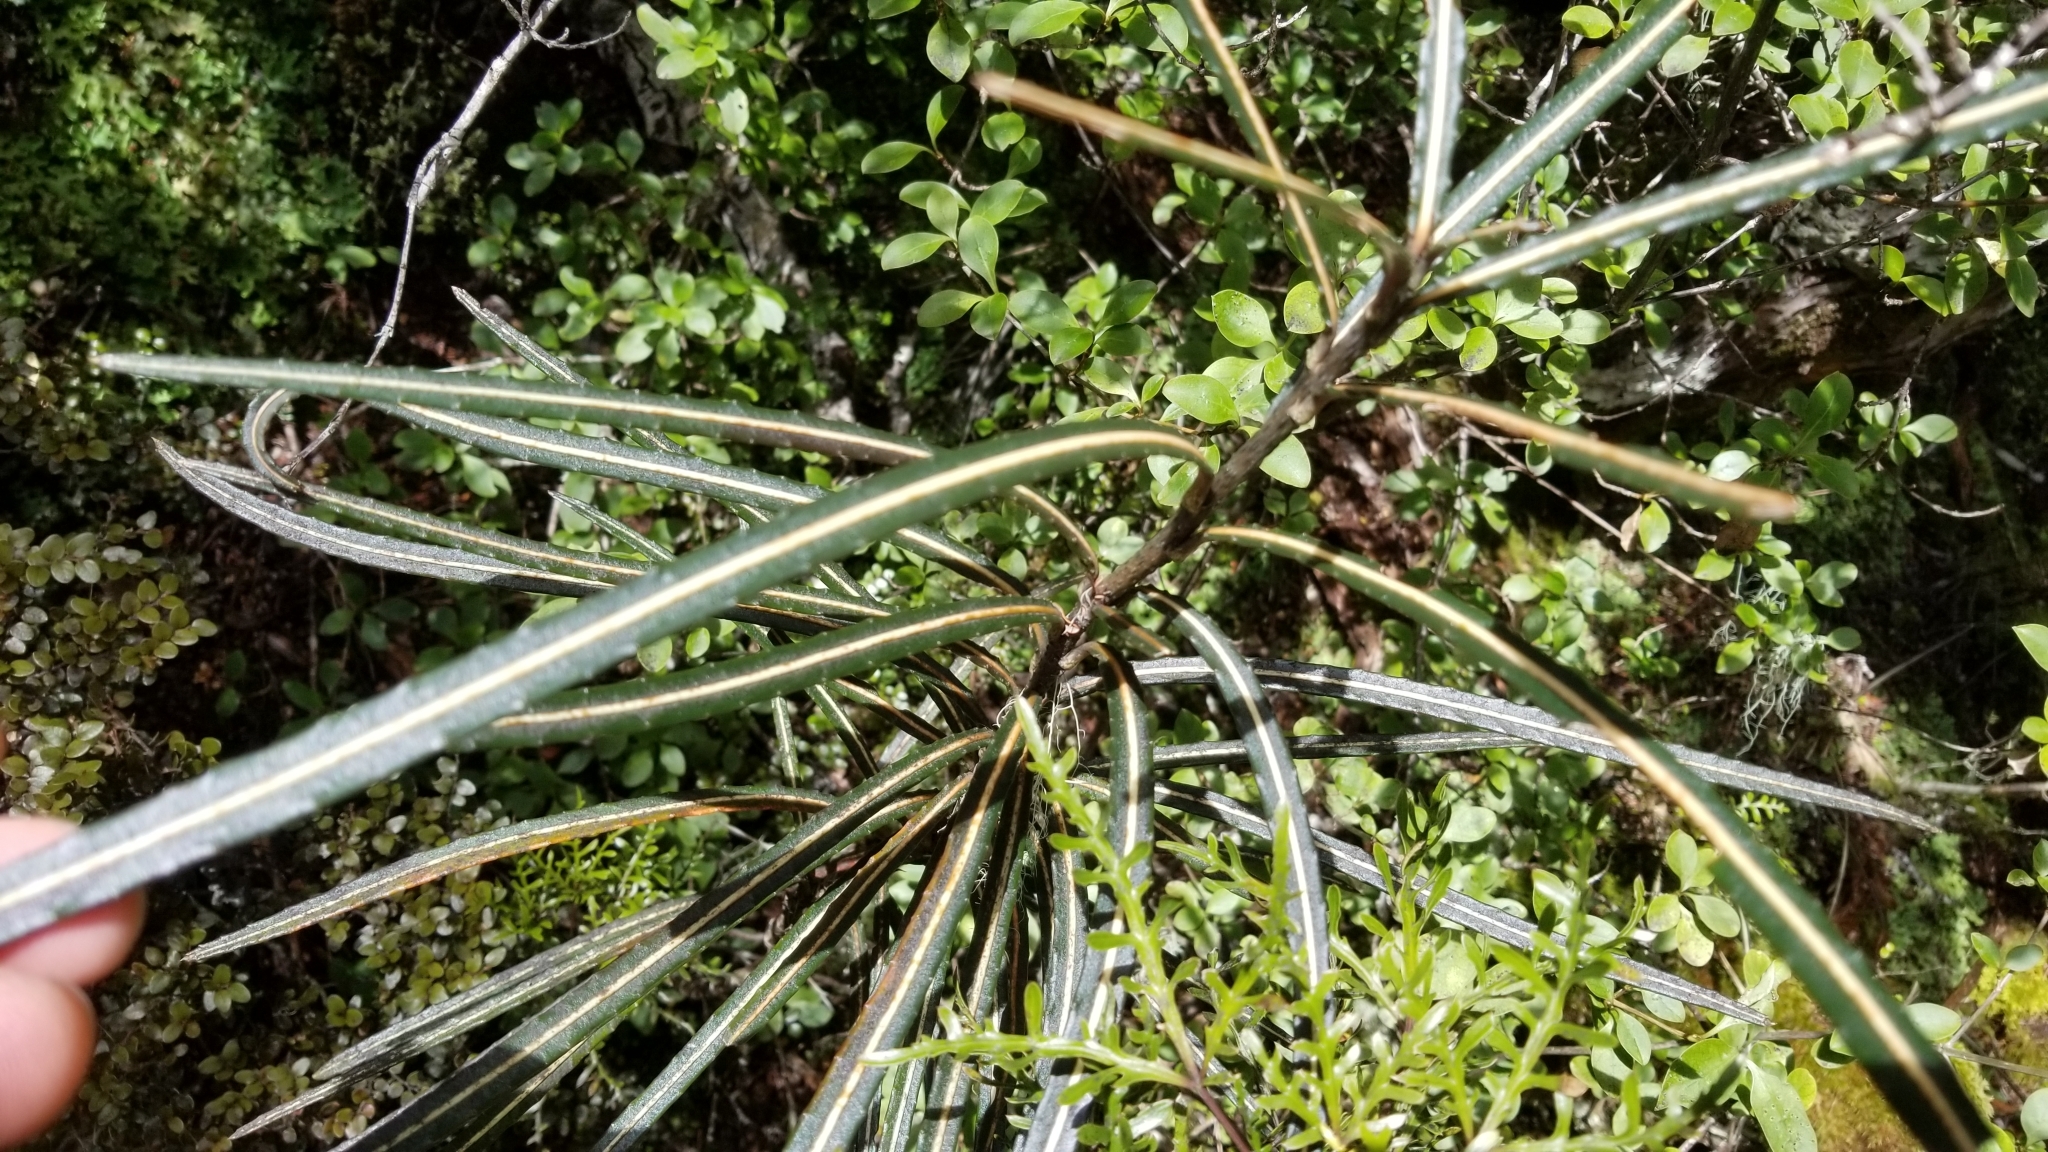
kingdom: Plantae
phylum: Tracheophyta
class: Magnoliopsida
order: Apiales
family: Araliaceae
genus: Pseudopanax
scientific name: Pseudopanax linearis
